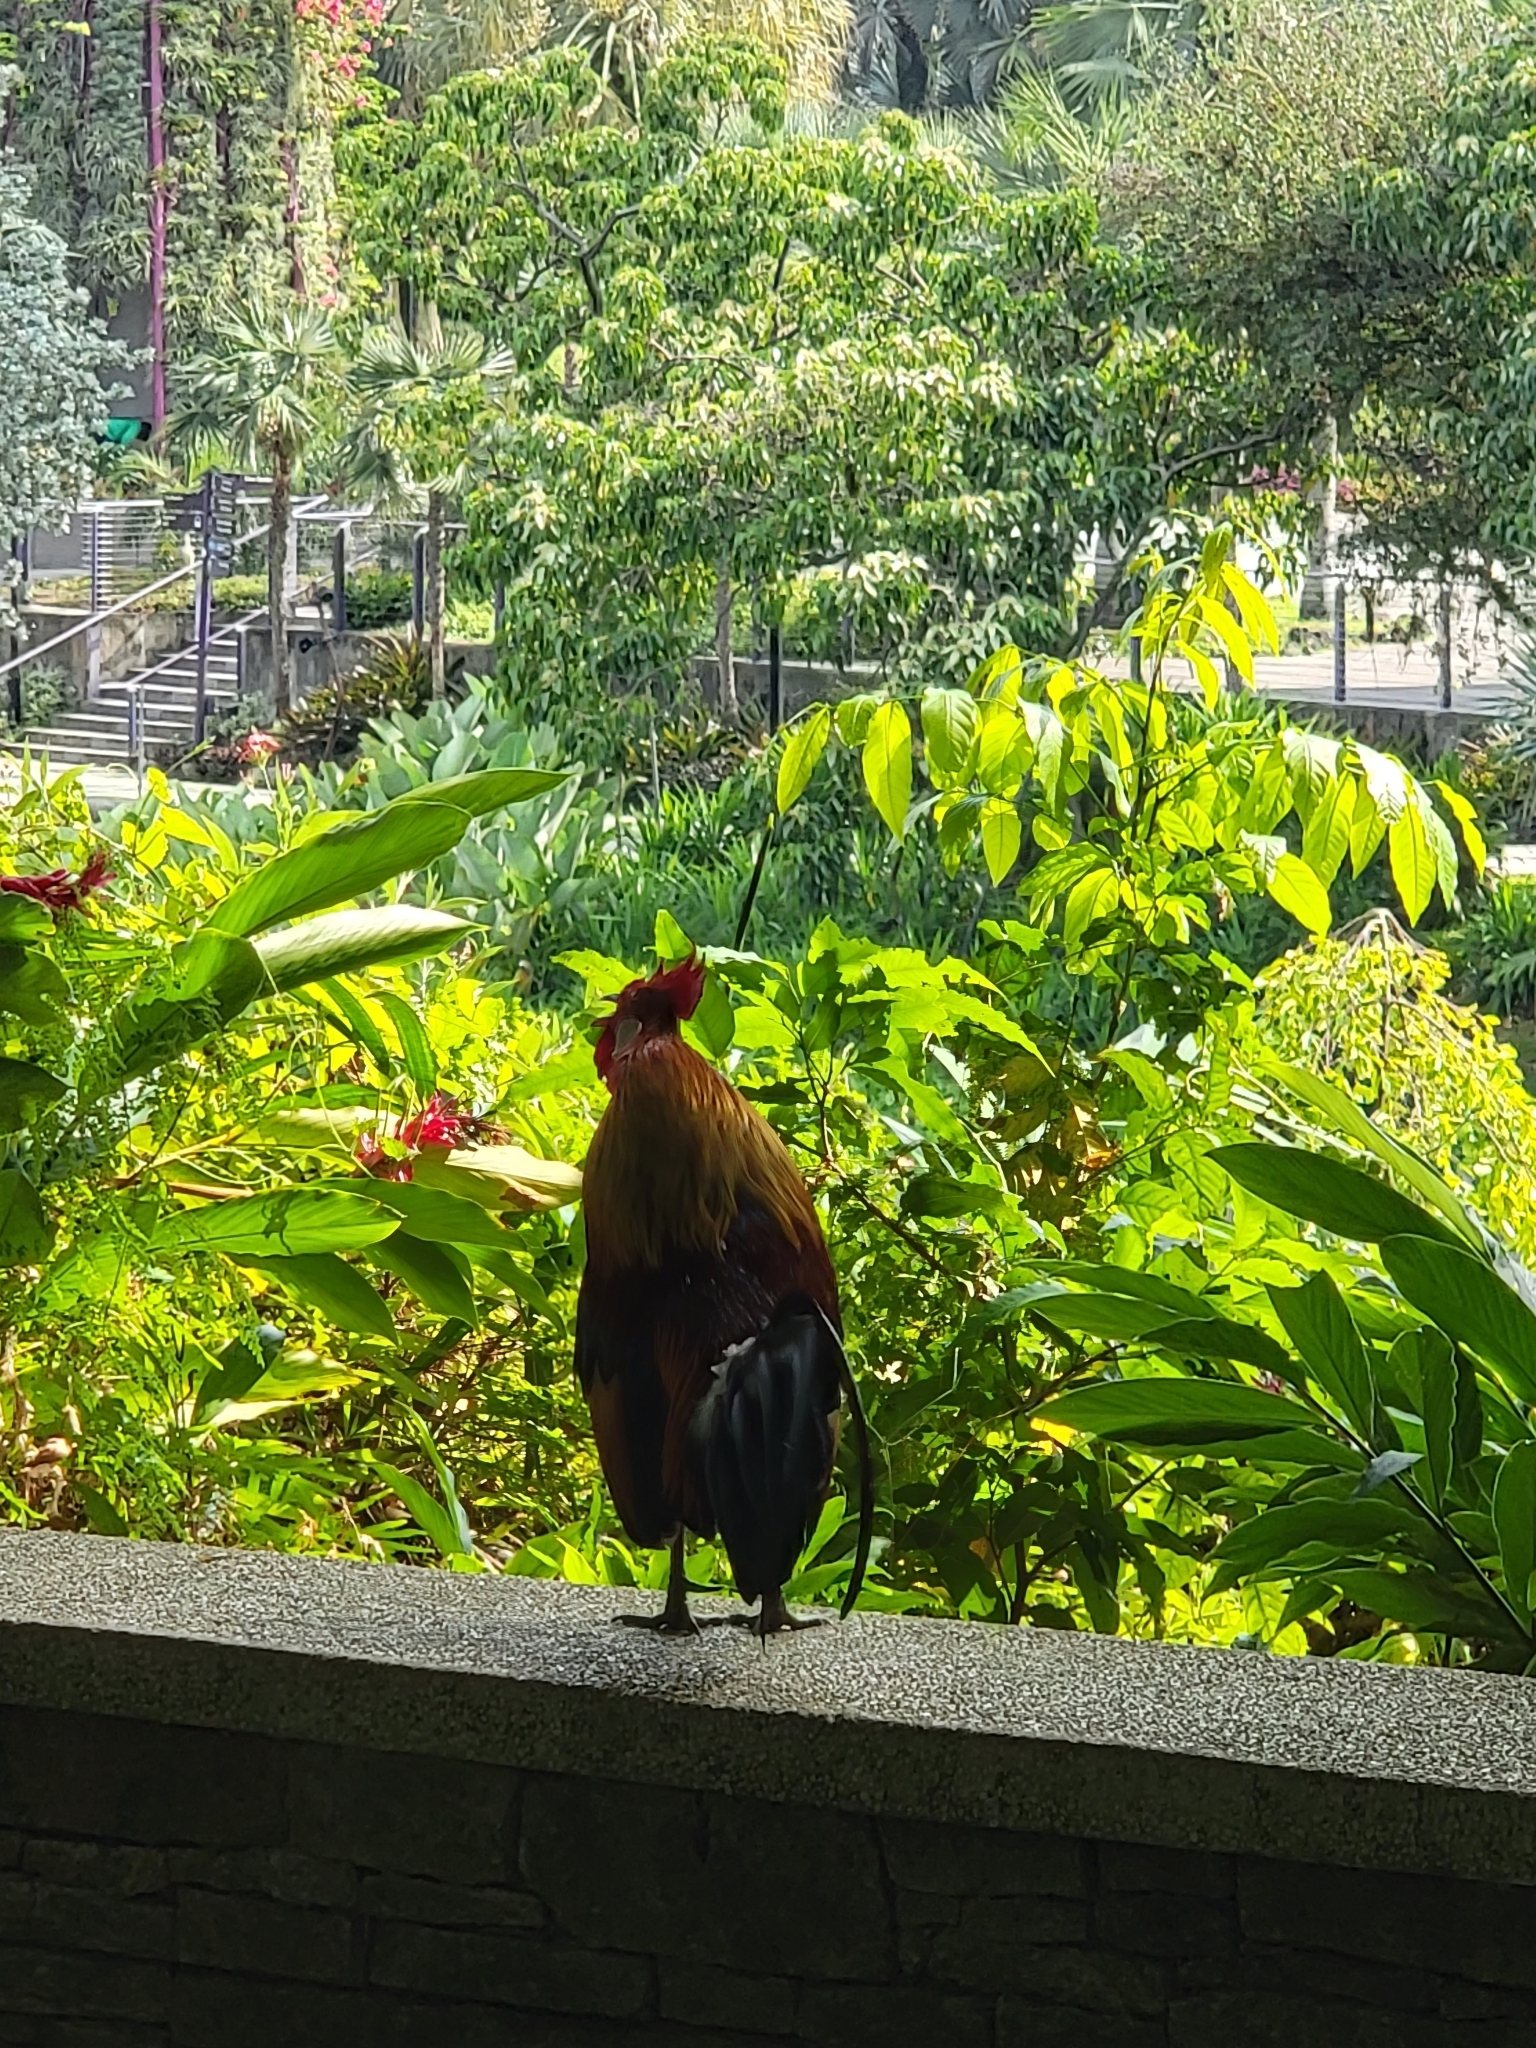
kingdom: Animalia
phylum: Chordata
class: Aves
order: Galliformes
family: Phasianidae
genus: Gallus
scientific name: Gallus gallus
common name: Red junglefowl
